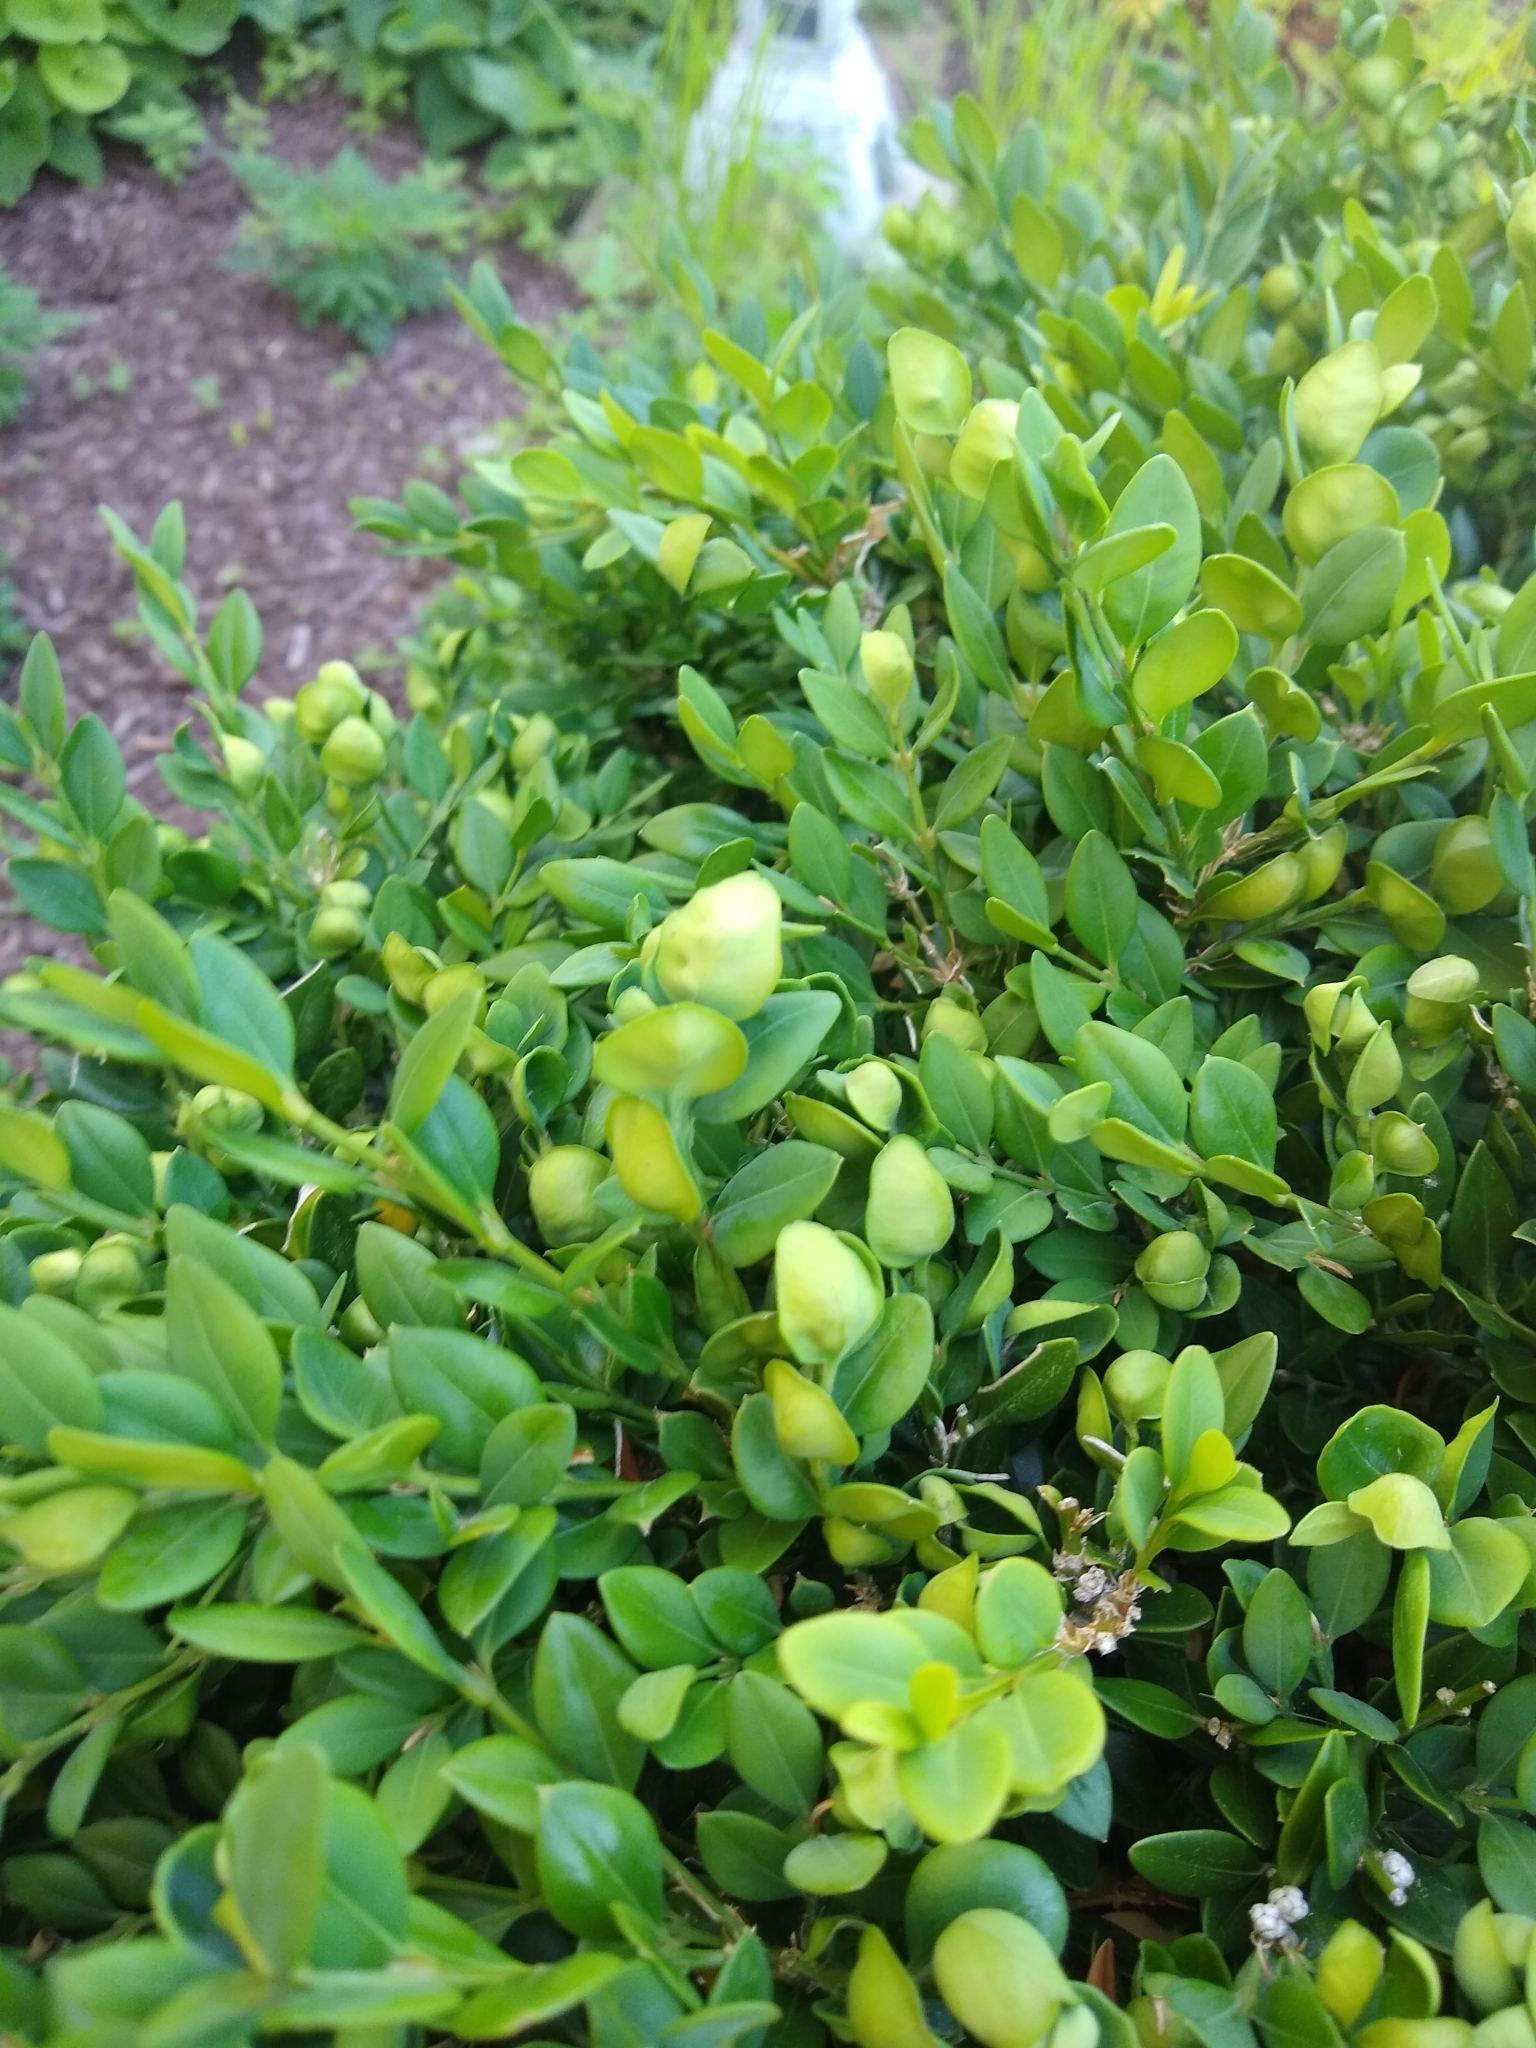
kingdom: Animalia
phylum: Arthropoda
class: Insecta
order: Hemiptera
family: Psyllidae
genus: Psylla
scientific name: Psylla buxi
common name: Boxwood psyllid
